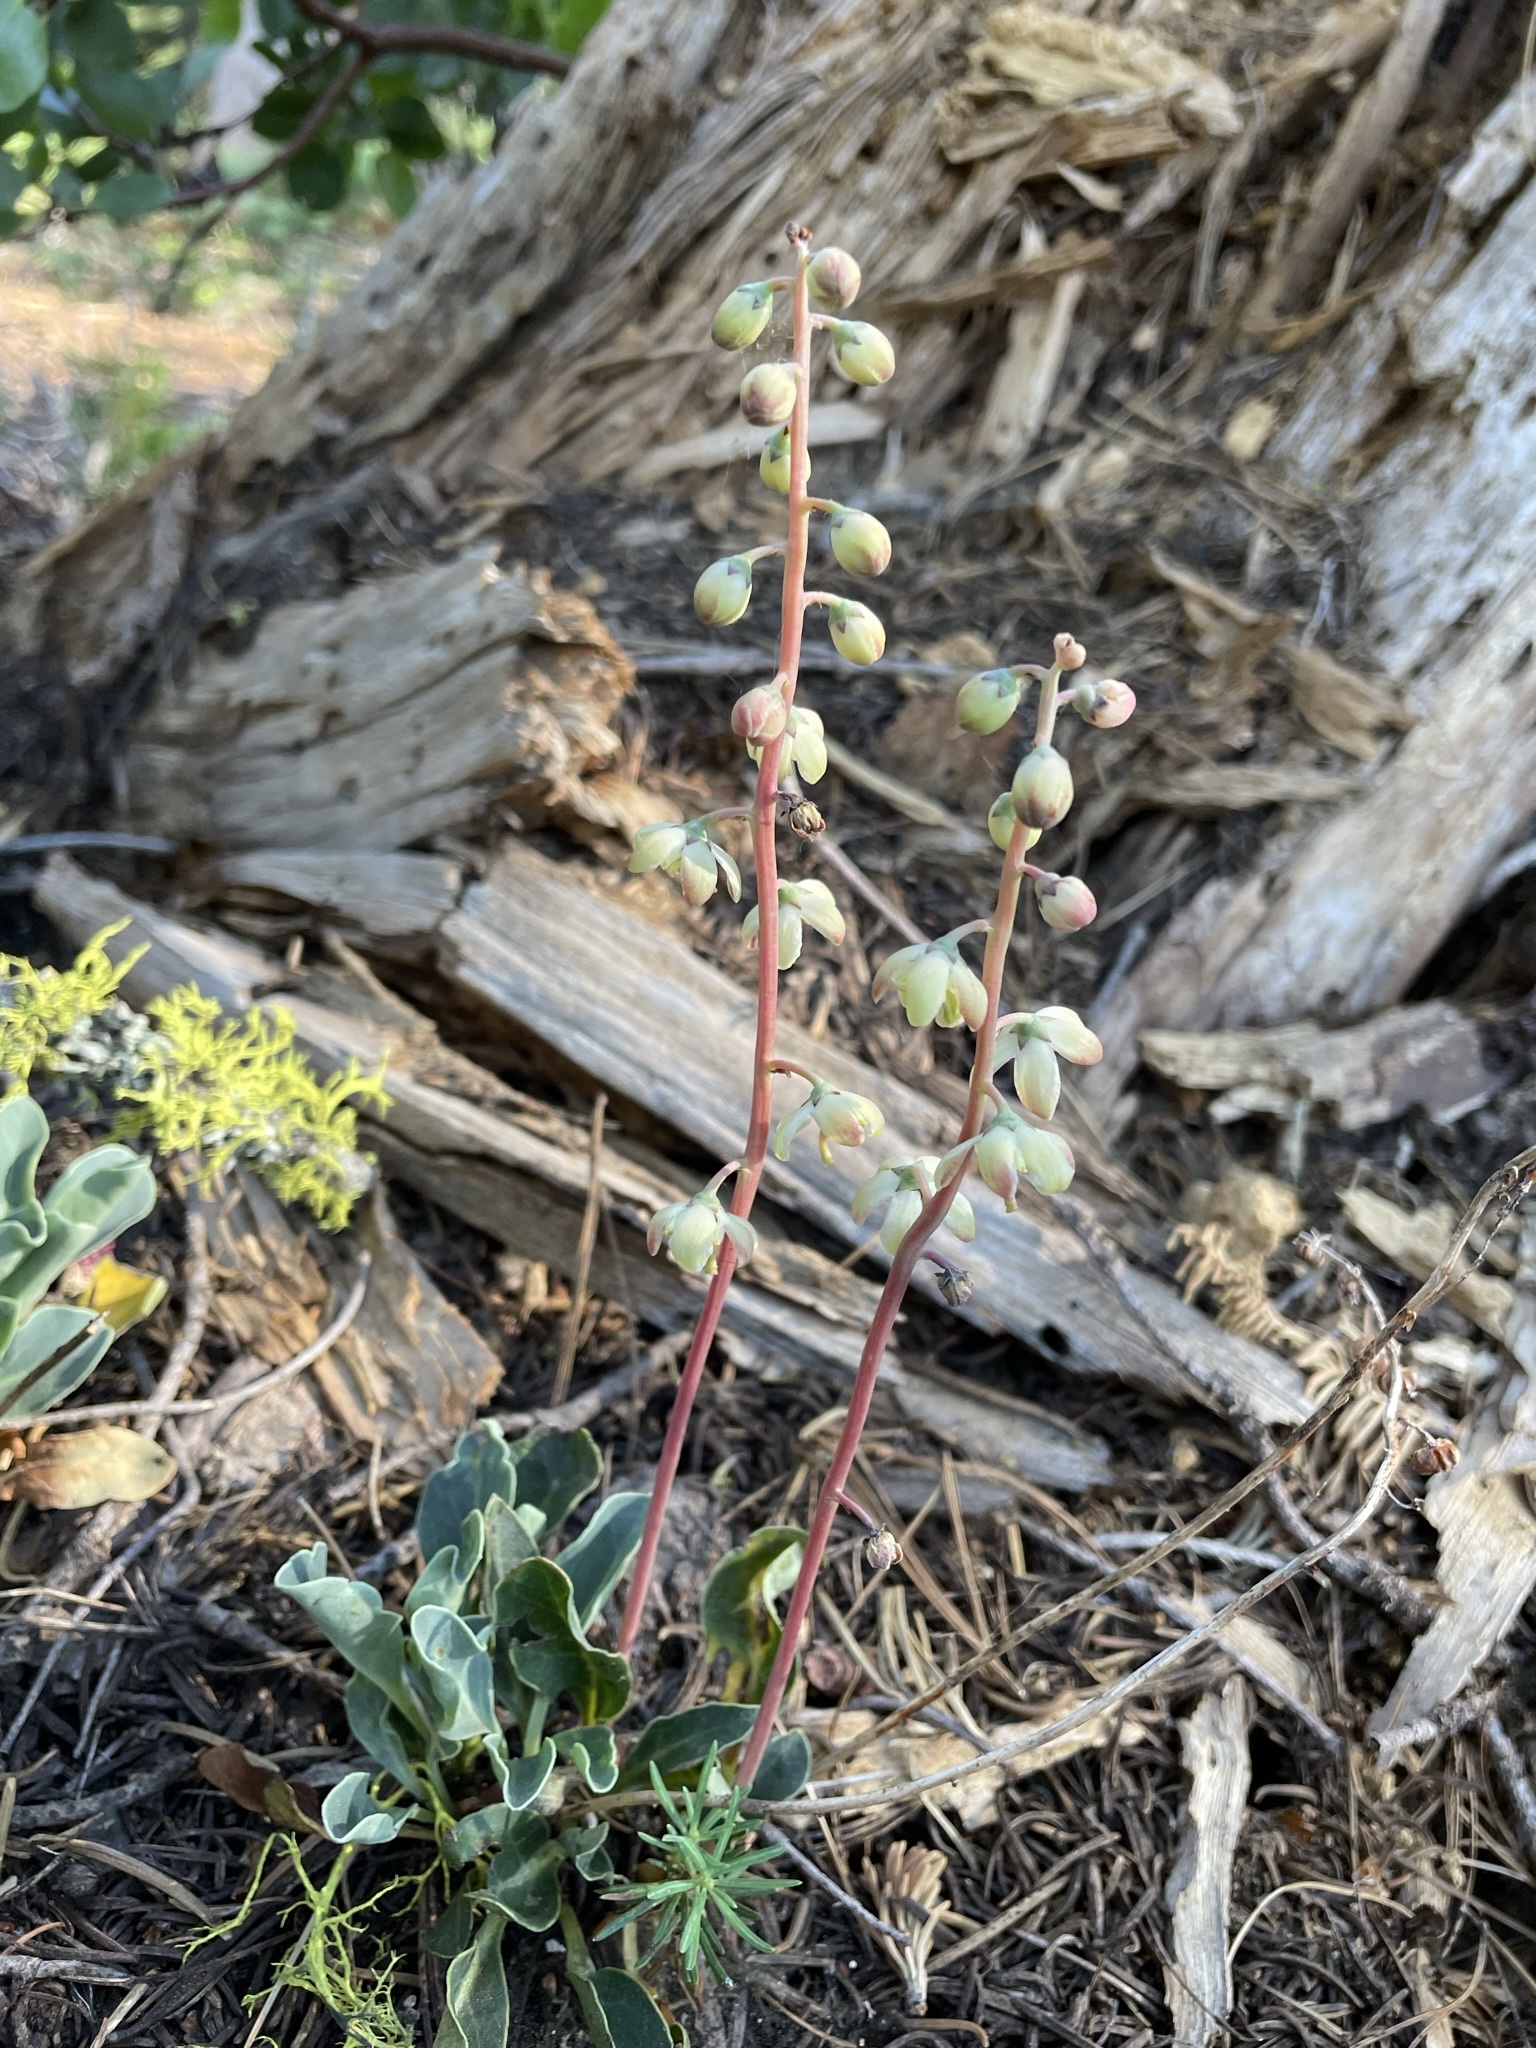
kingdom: Plantae
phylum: Tracheophyta
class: Magnoliopsida
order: Ericales
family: Ericaceae
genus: Pyrola
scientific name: Pyrola dentata
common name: Tooth-leaved wintergreen
